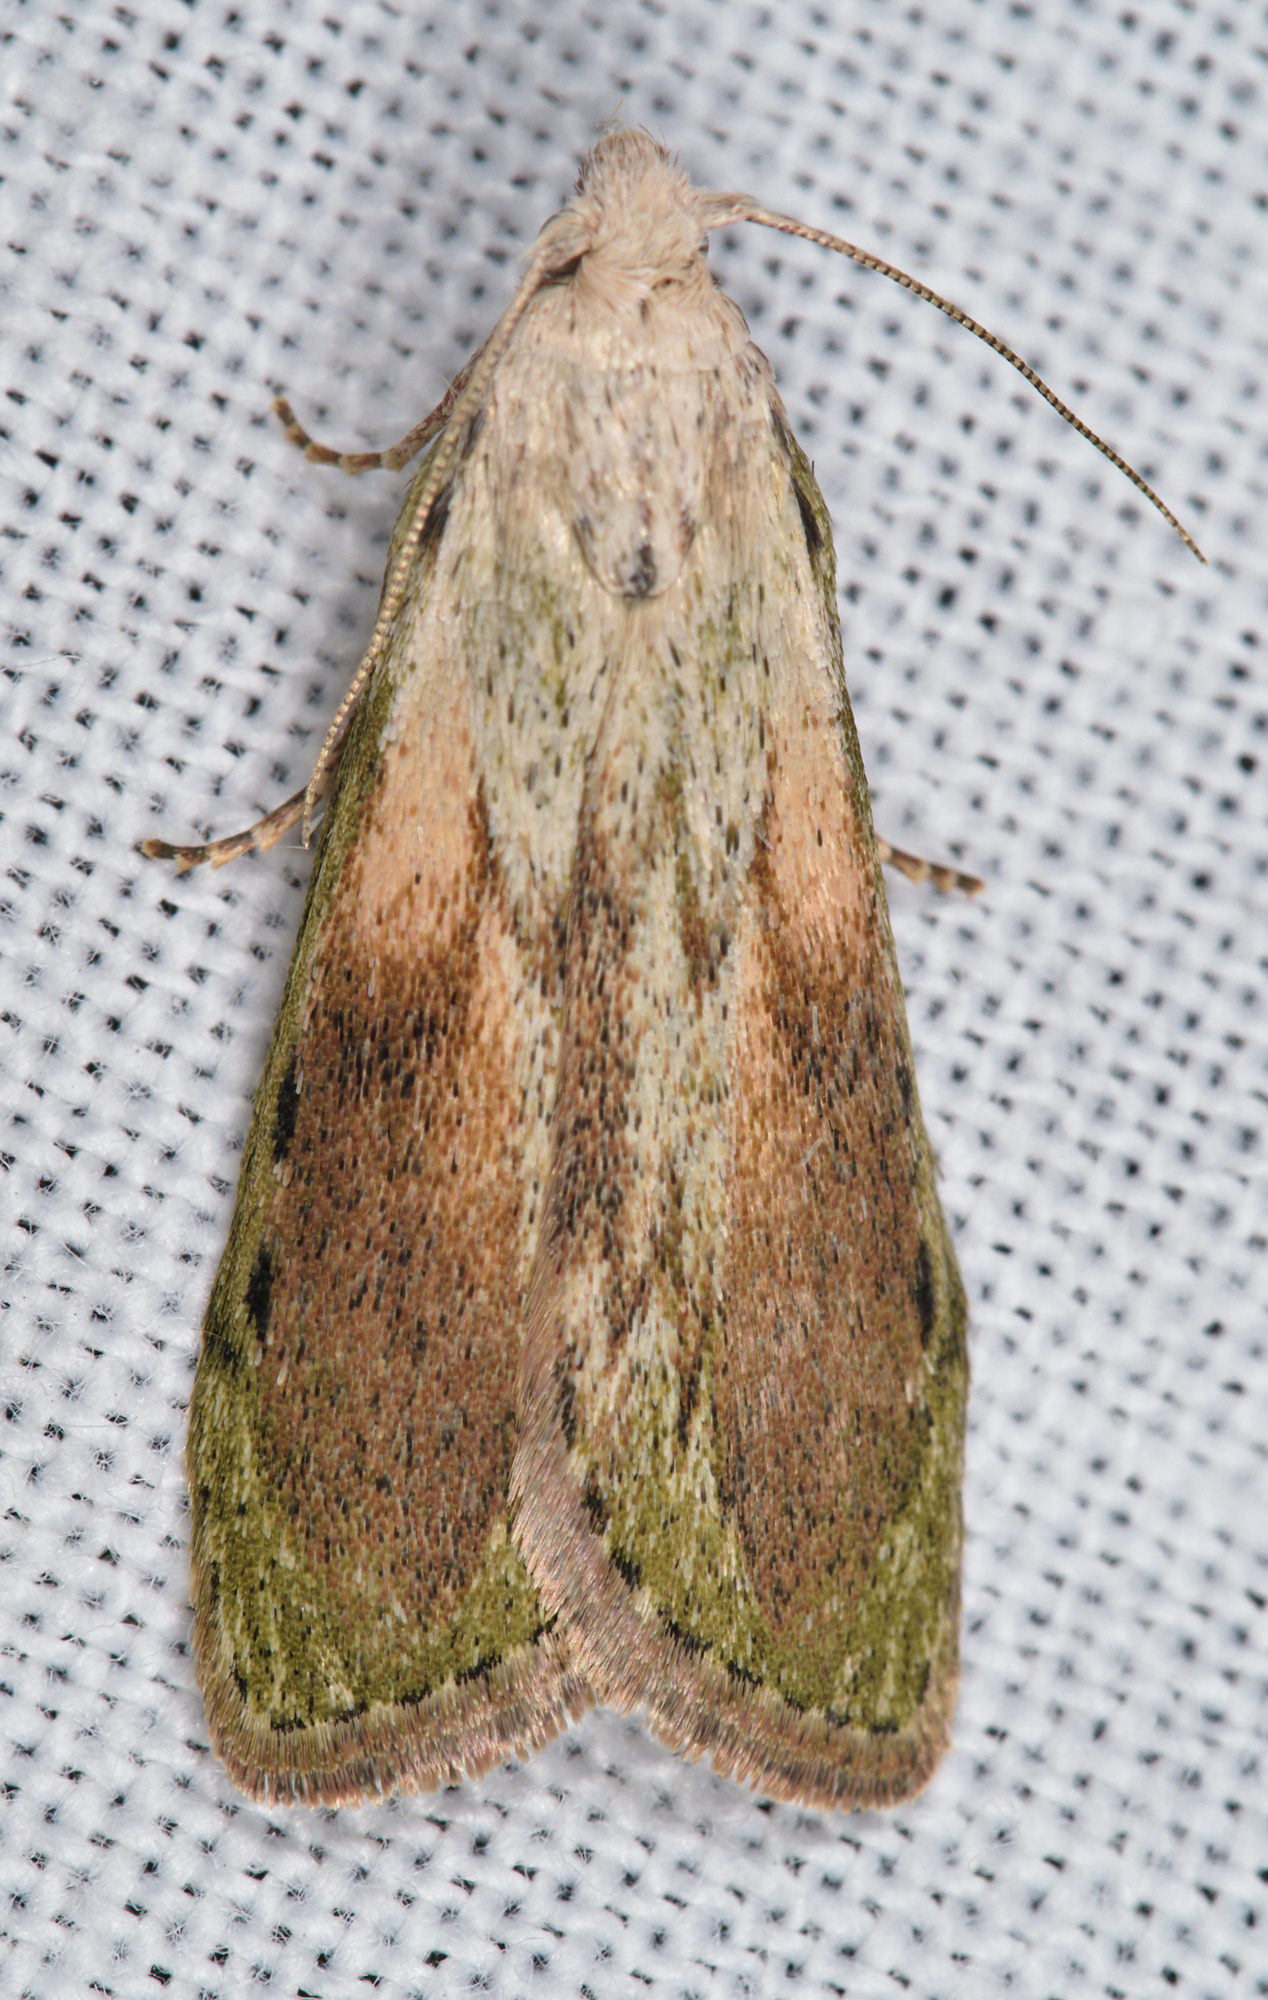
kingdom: Animalia
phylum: Arthropoda
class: Insecta
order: Lepidoptera
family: Pyralidae
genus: Aphomia
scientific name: Aphomia sociella
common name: Bee moth
